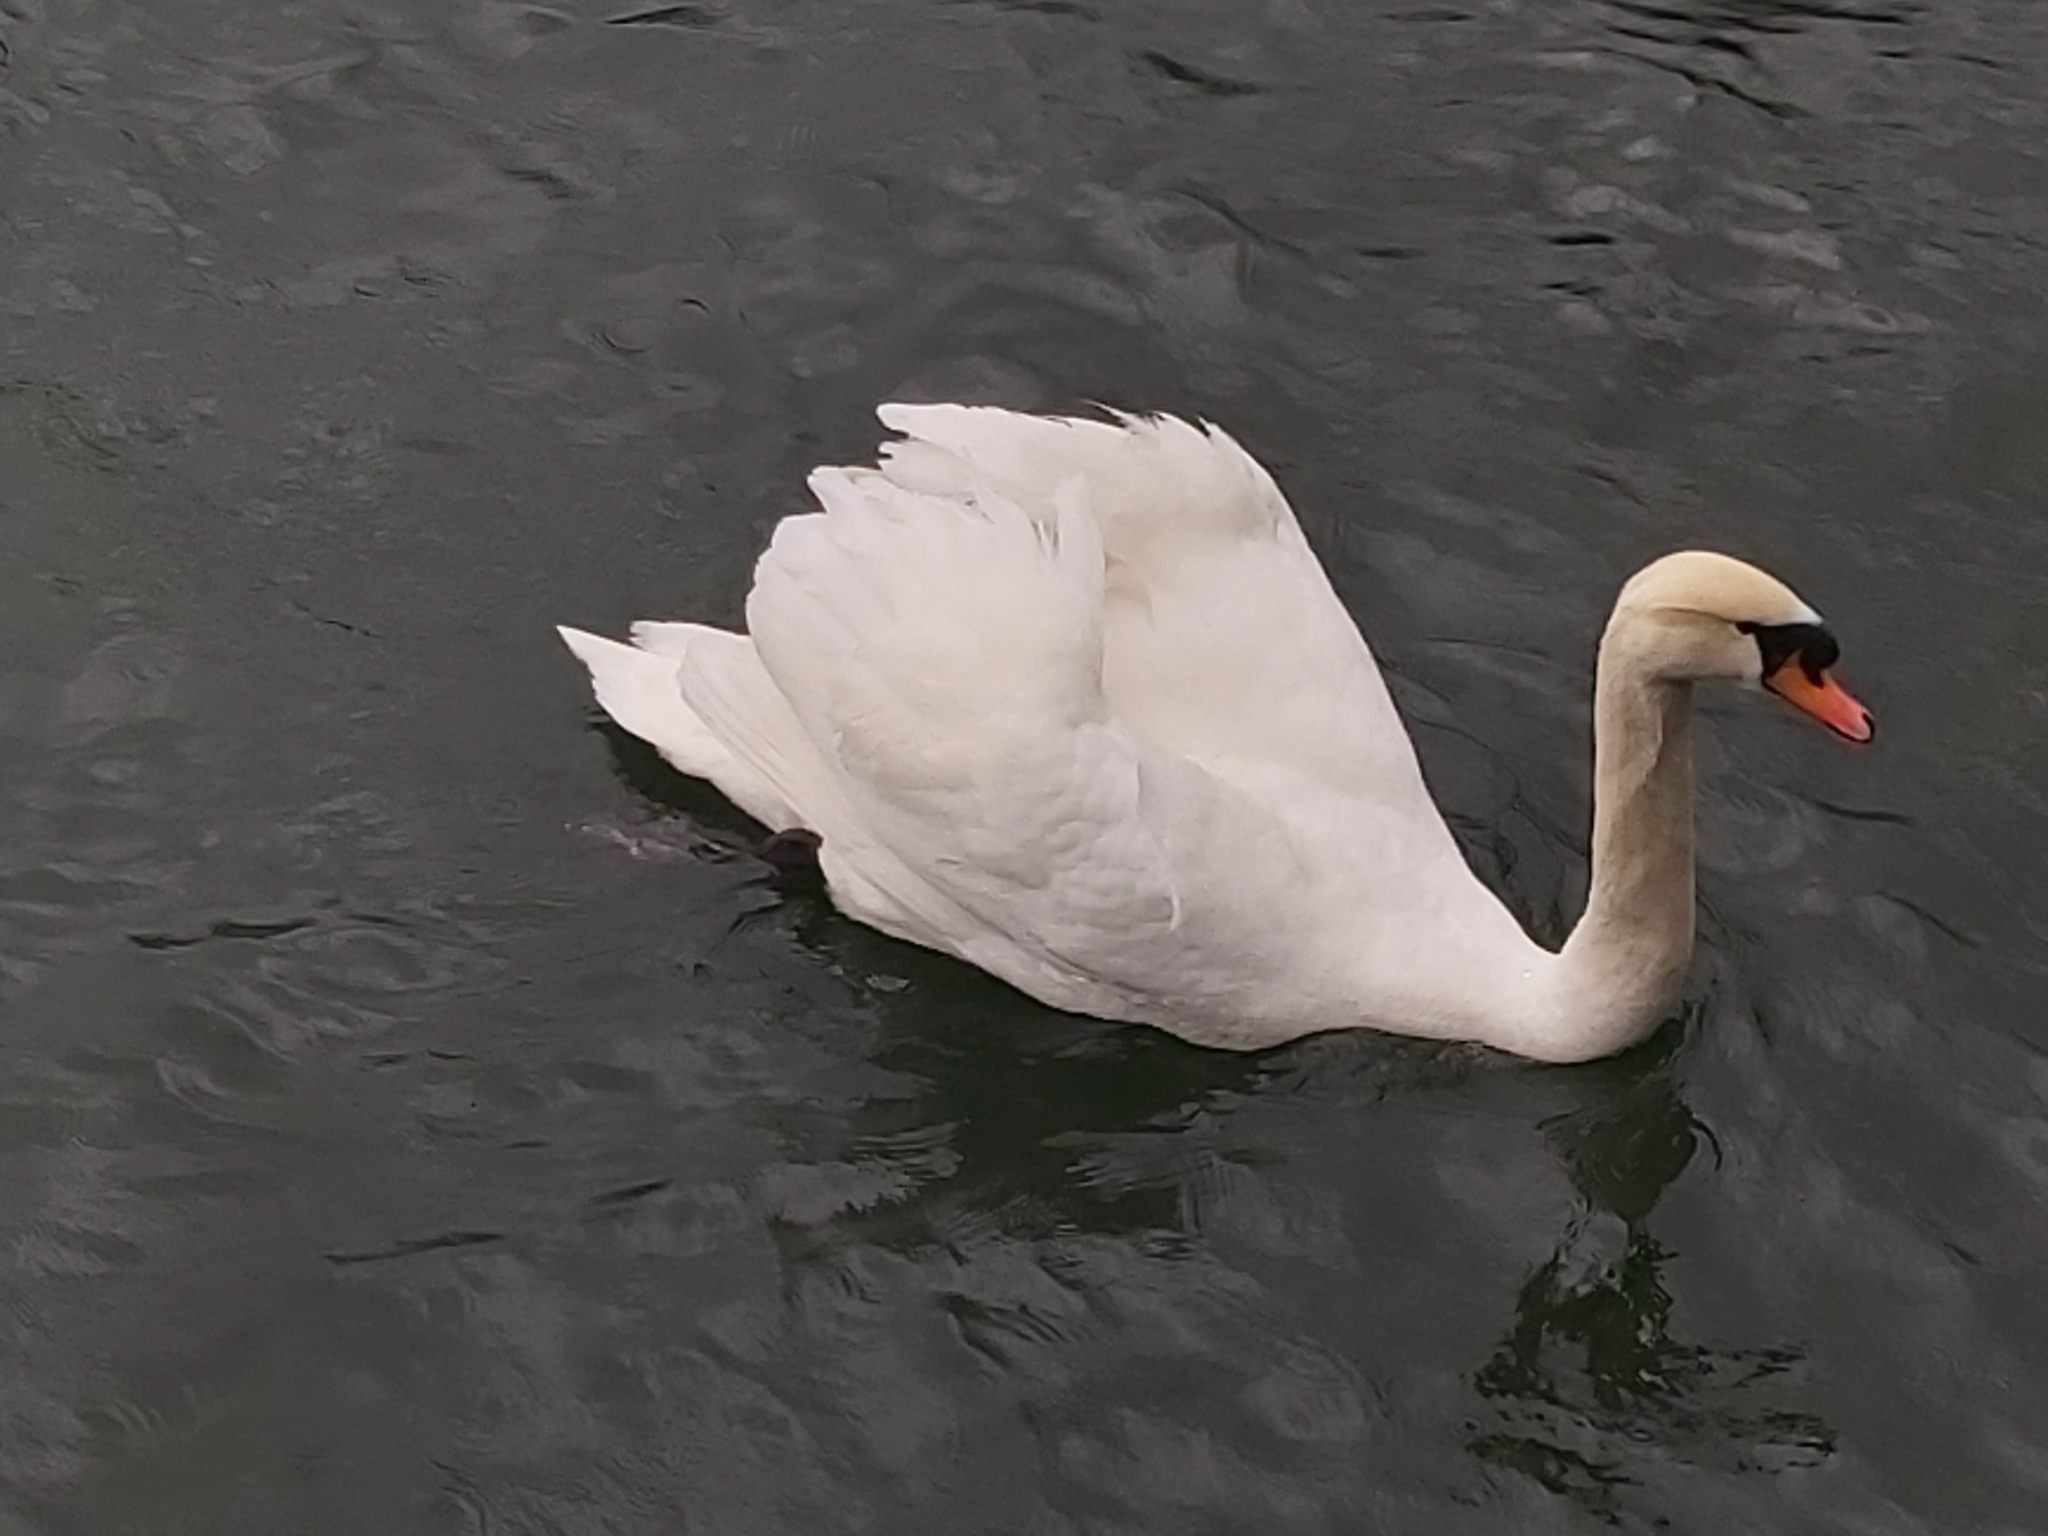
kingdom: Animalia
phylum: Chordata
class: Aves
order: Anseriformes
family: Anatidae
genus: Cygnus
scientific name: Cygnus olor
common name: Mute swan
